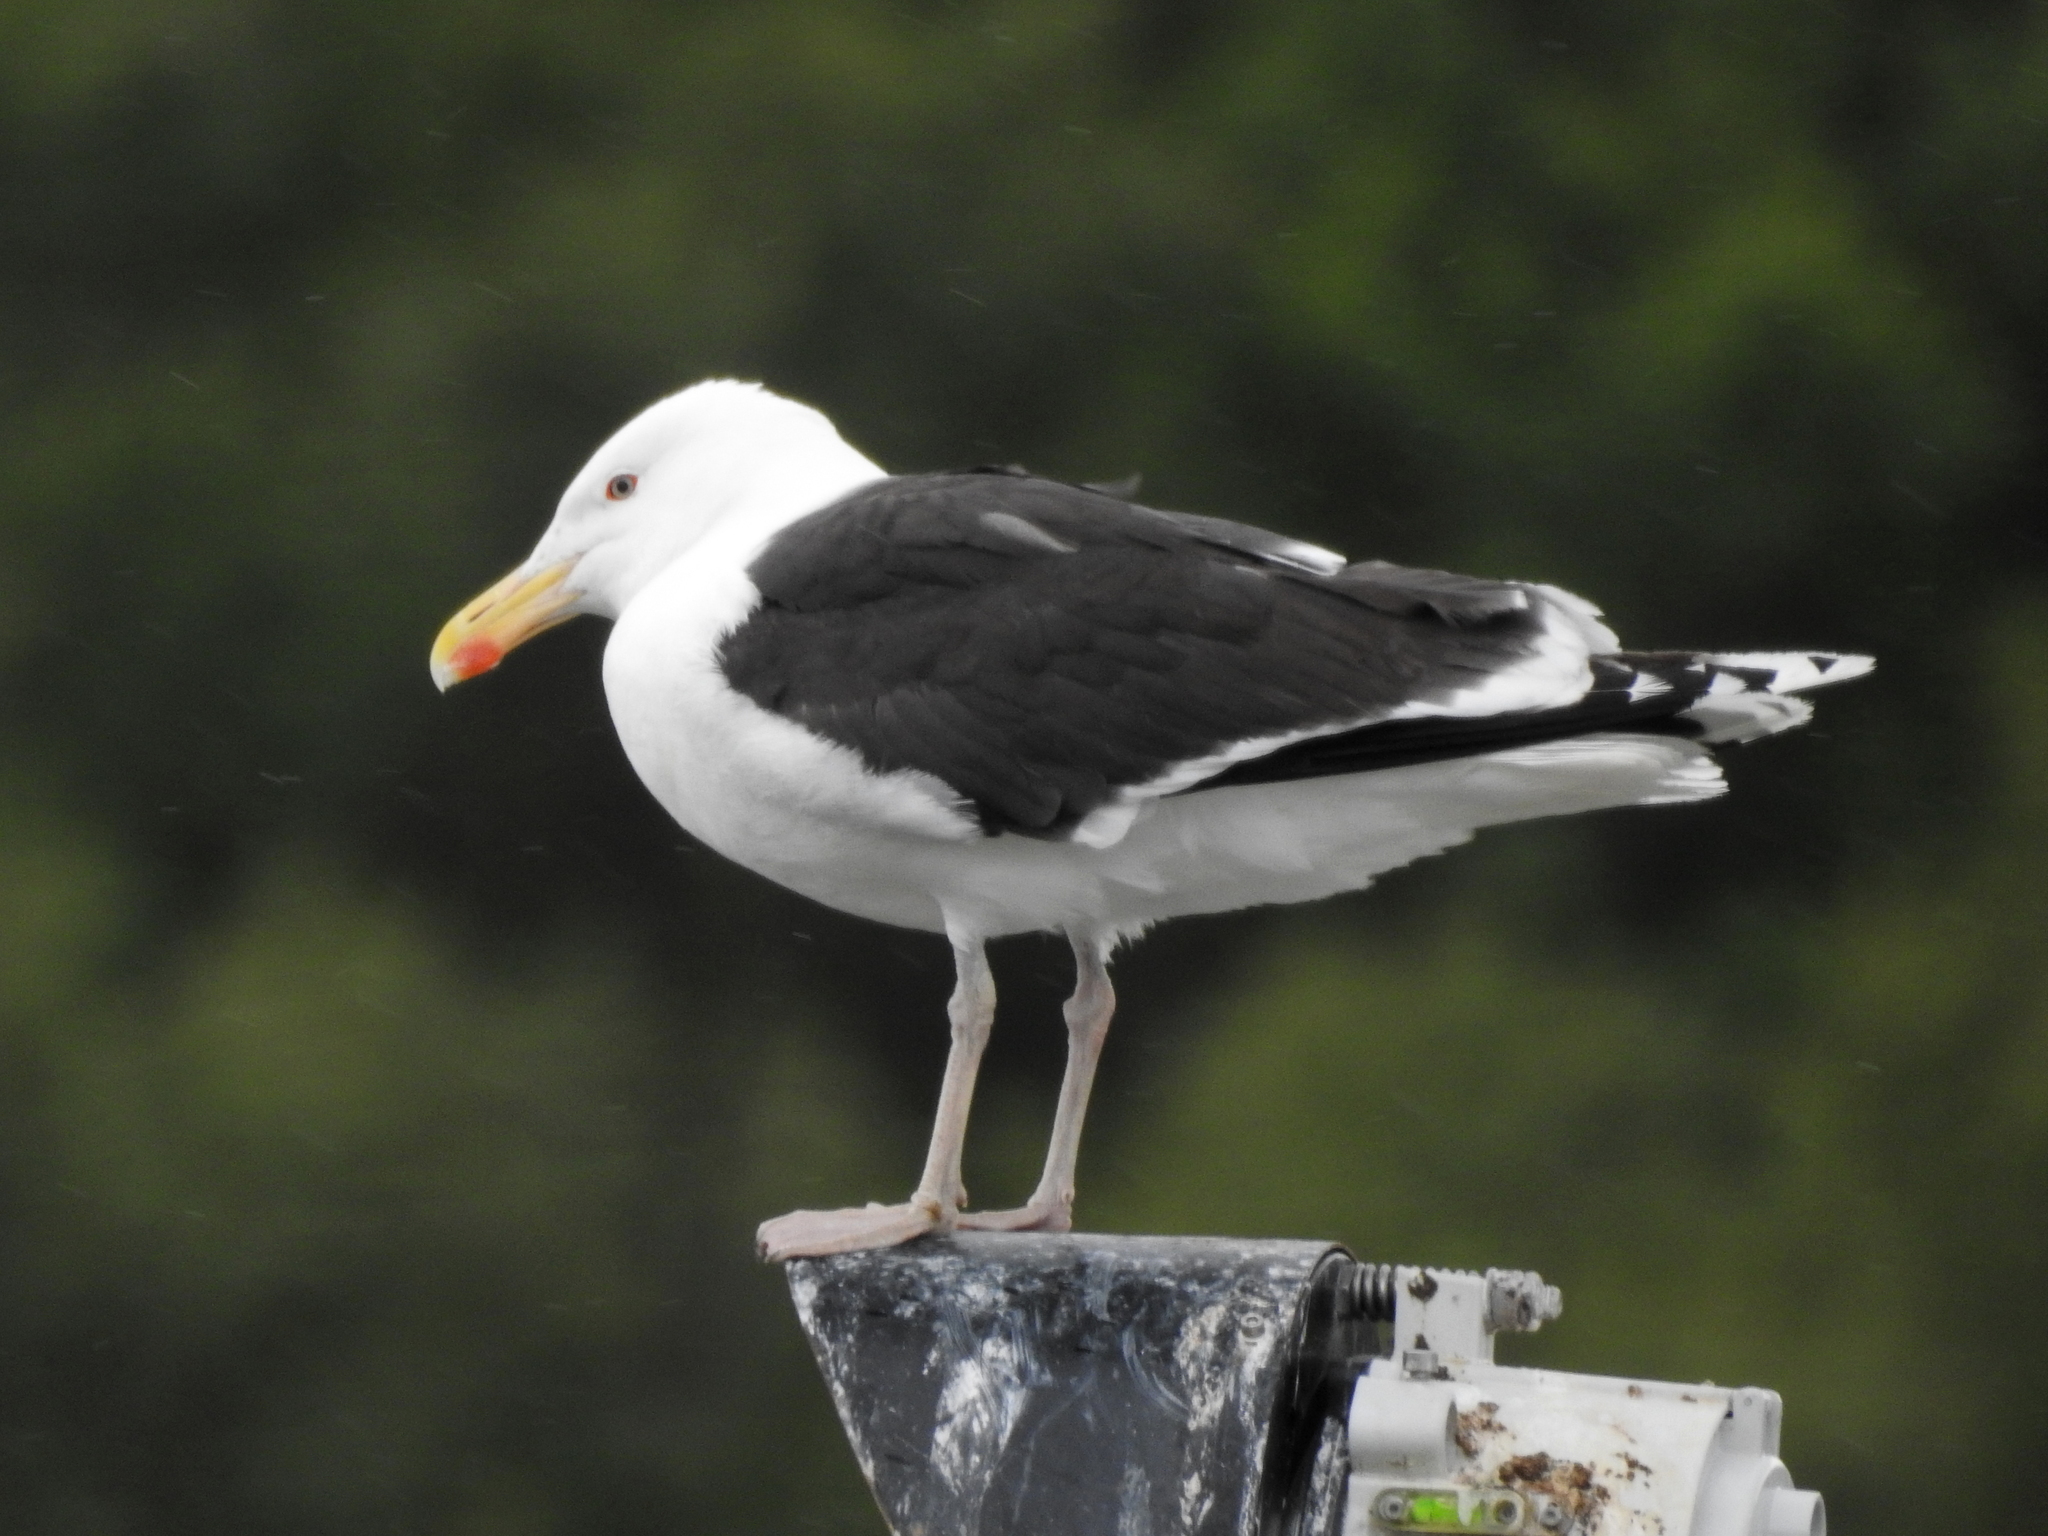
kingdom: Animalia
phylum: Chordata
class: Aves
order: Charadriiformes
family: Laridae
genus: Larus
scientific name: Larus marinus
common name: Great black-backed gull
